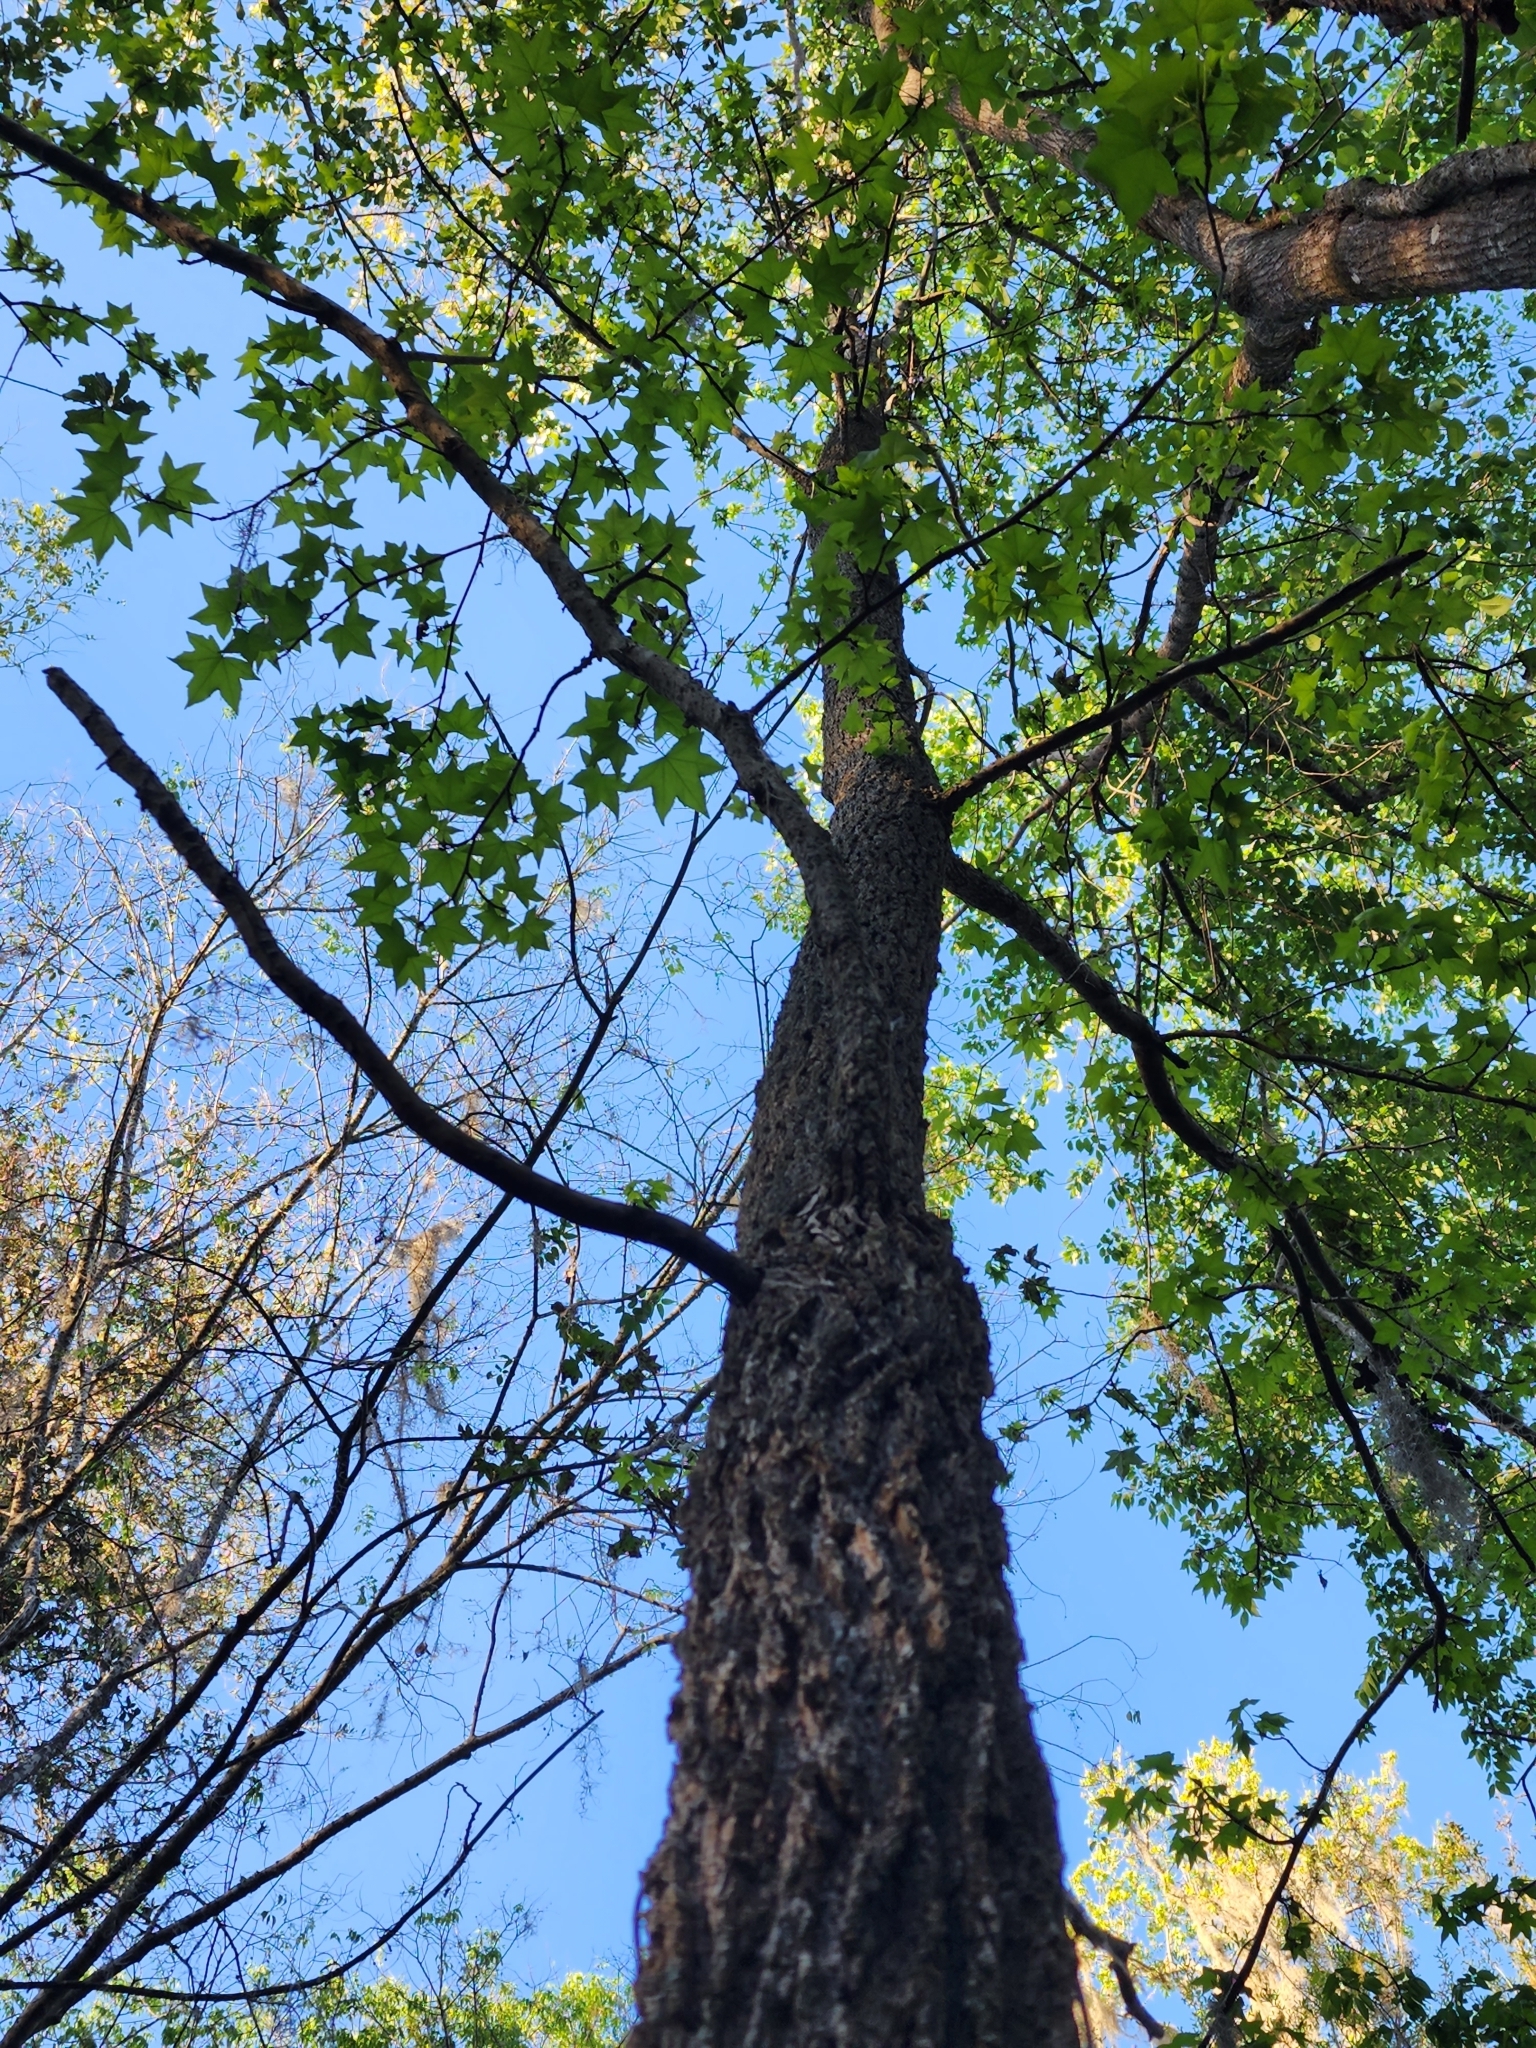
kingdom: Plantae
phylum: Tracheophyta
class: Magnoliopsida
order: Saxifragales
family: Altingiaceae
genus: Liquidambar
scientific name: Liquidambar styraciflua
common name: Sweet gum
